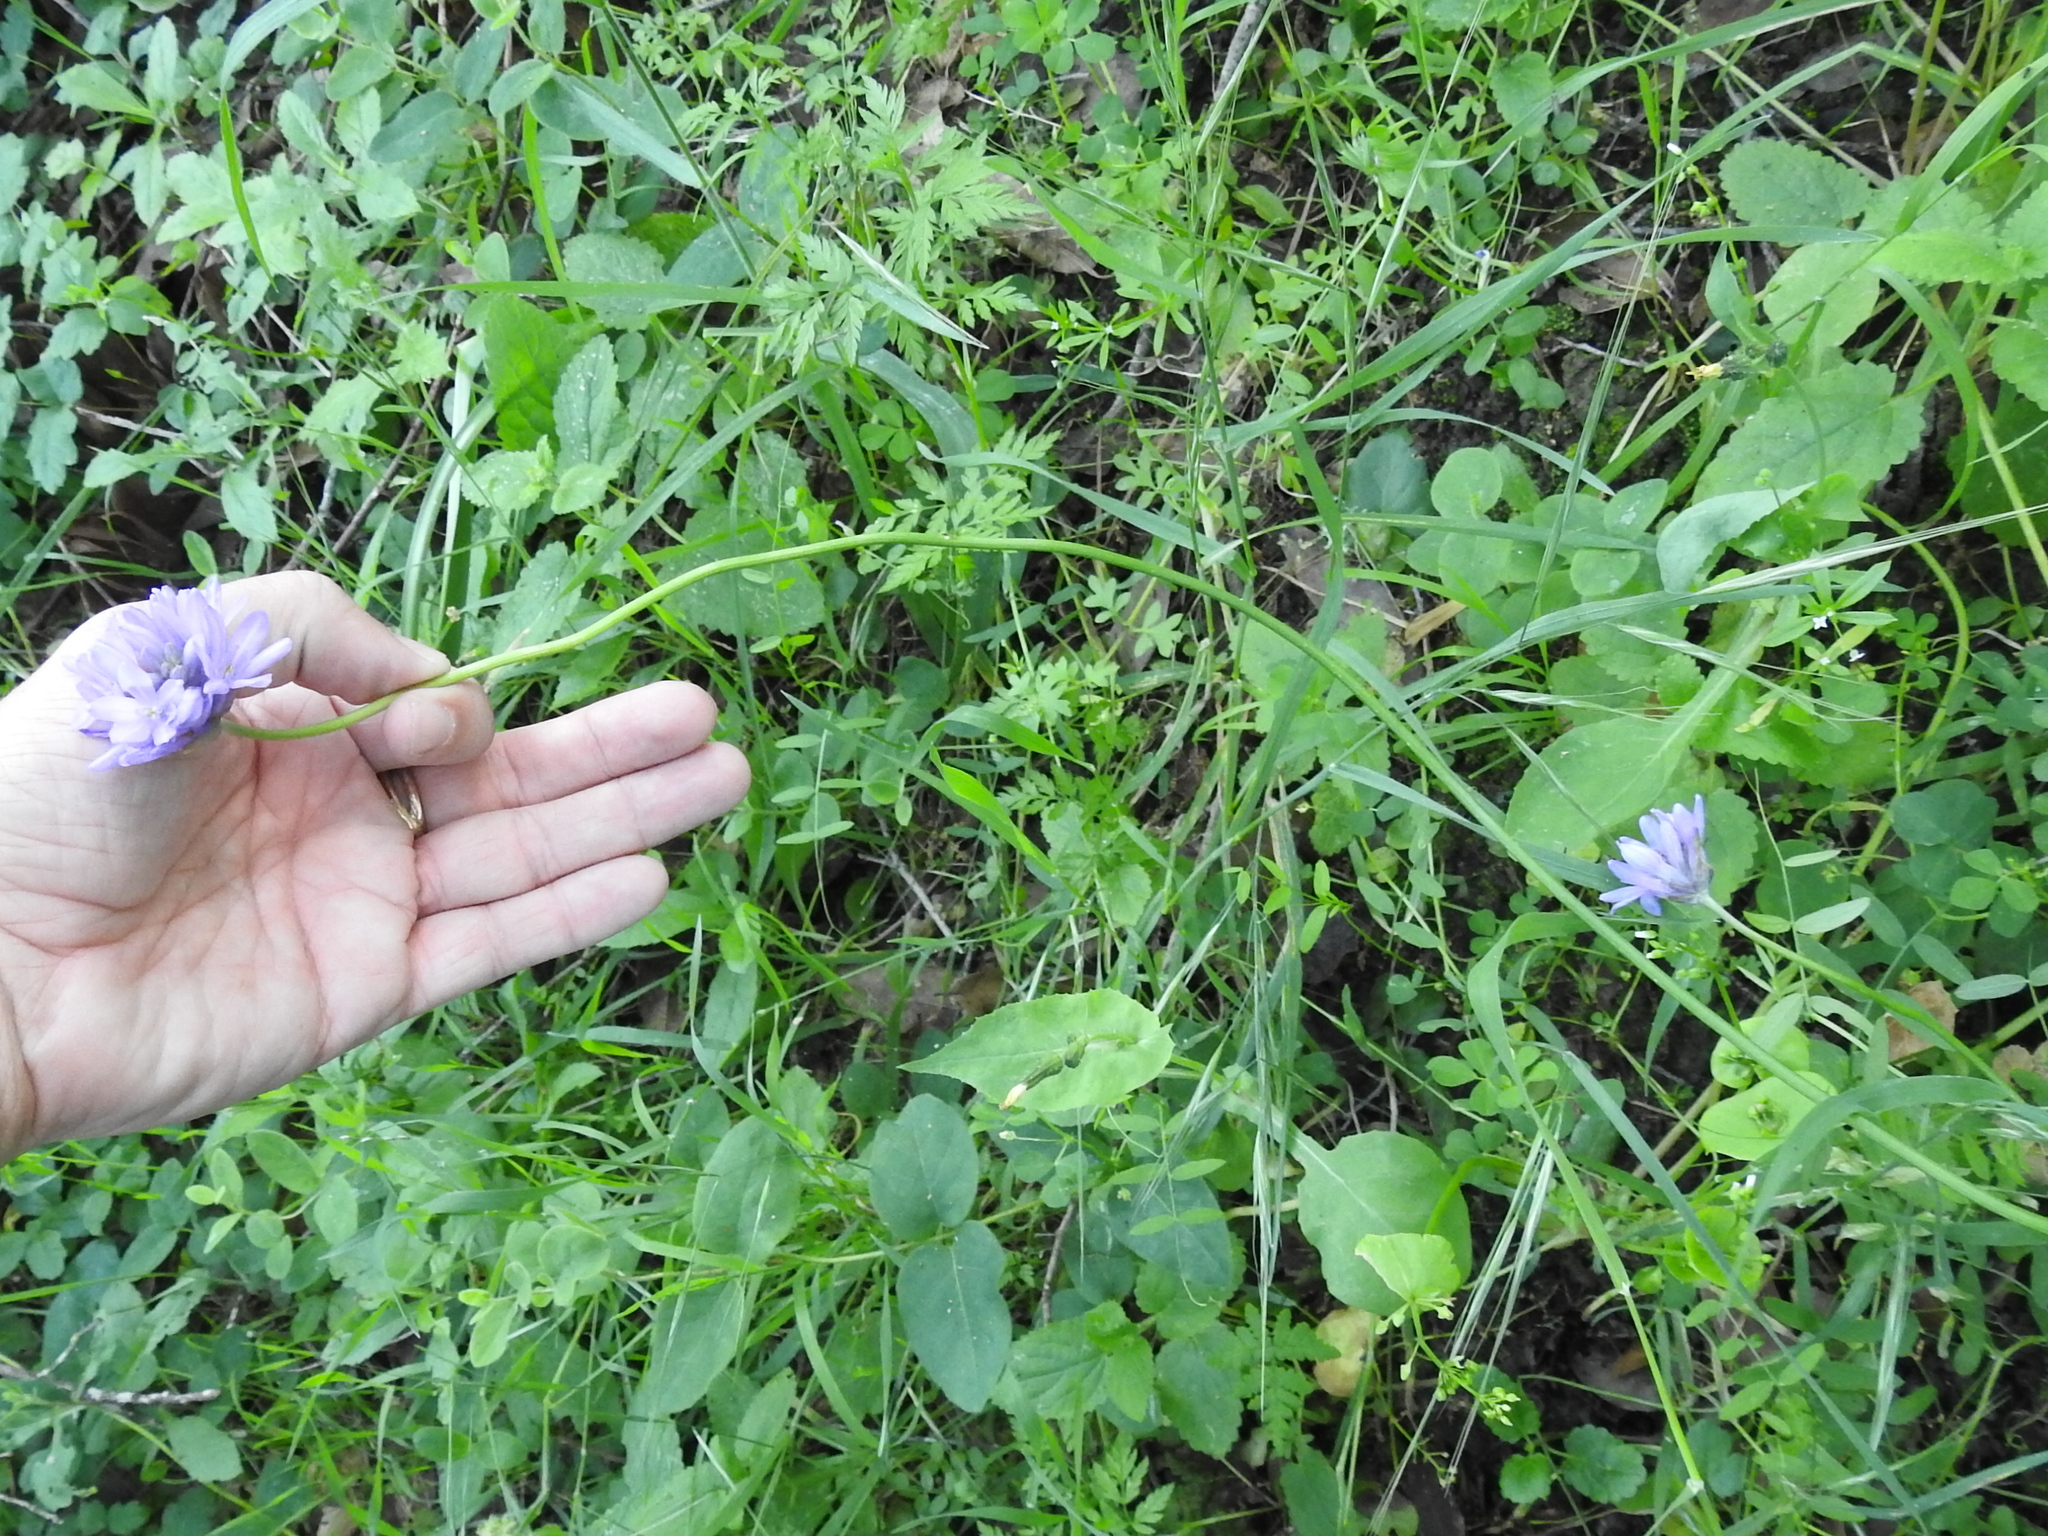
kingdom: Plantae
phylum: Tracheophyta
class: Liliopsida
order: Asparagales
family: Asparagaceae
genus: Dichelostemma
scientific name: Dichelostemma congestum
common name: Fork-tooth ookow
